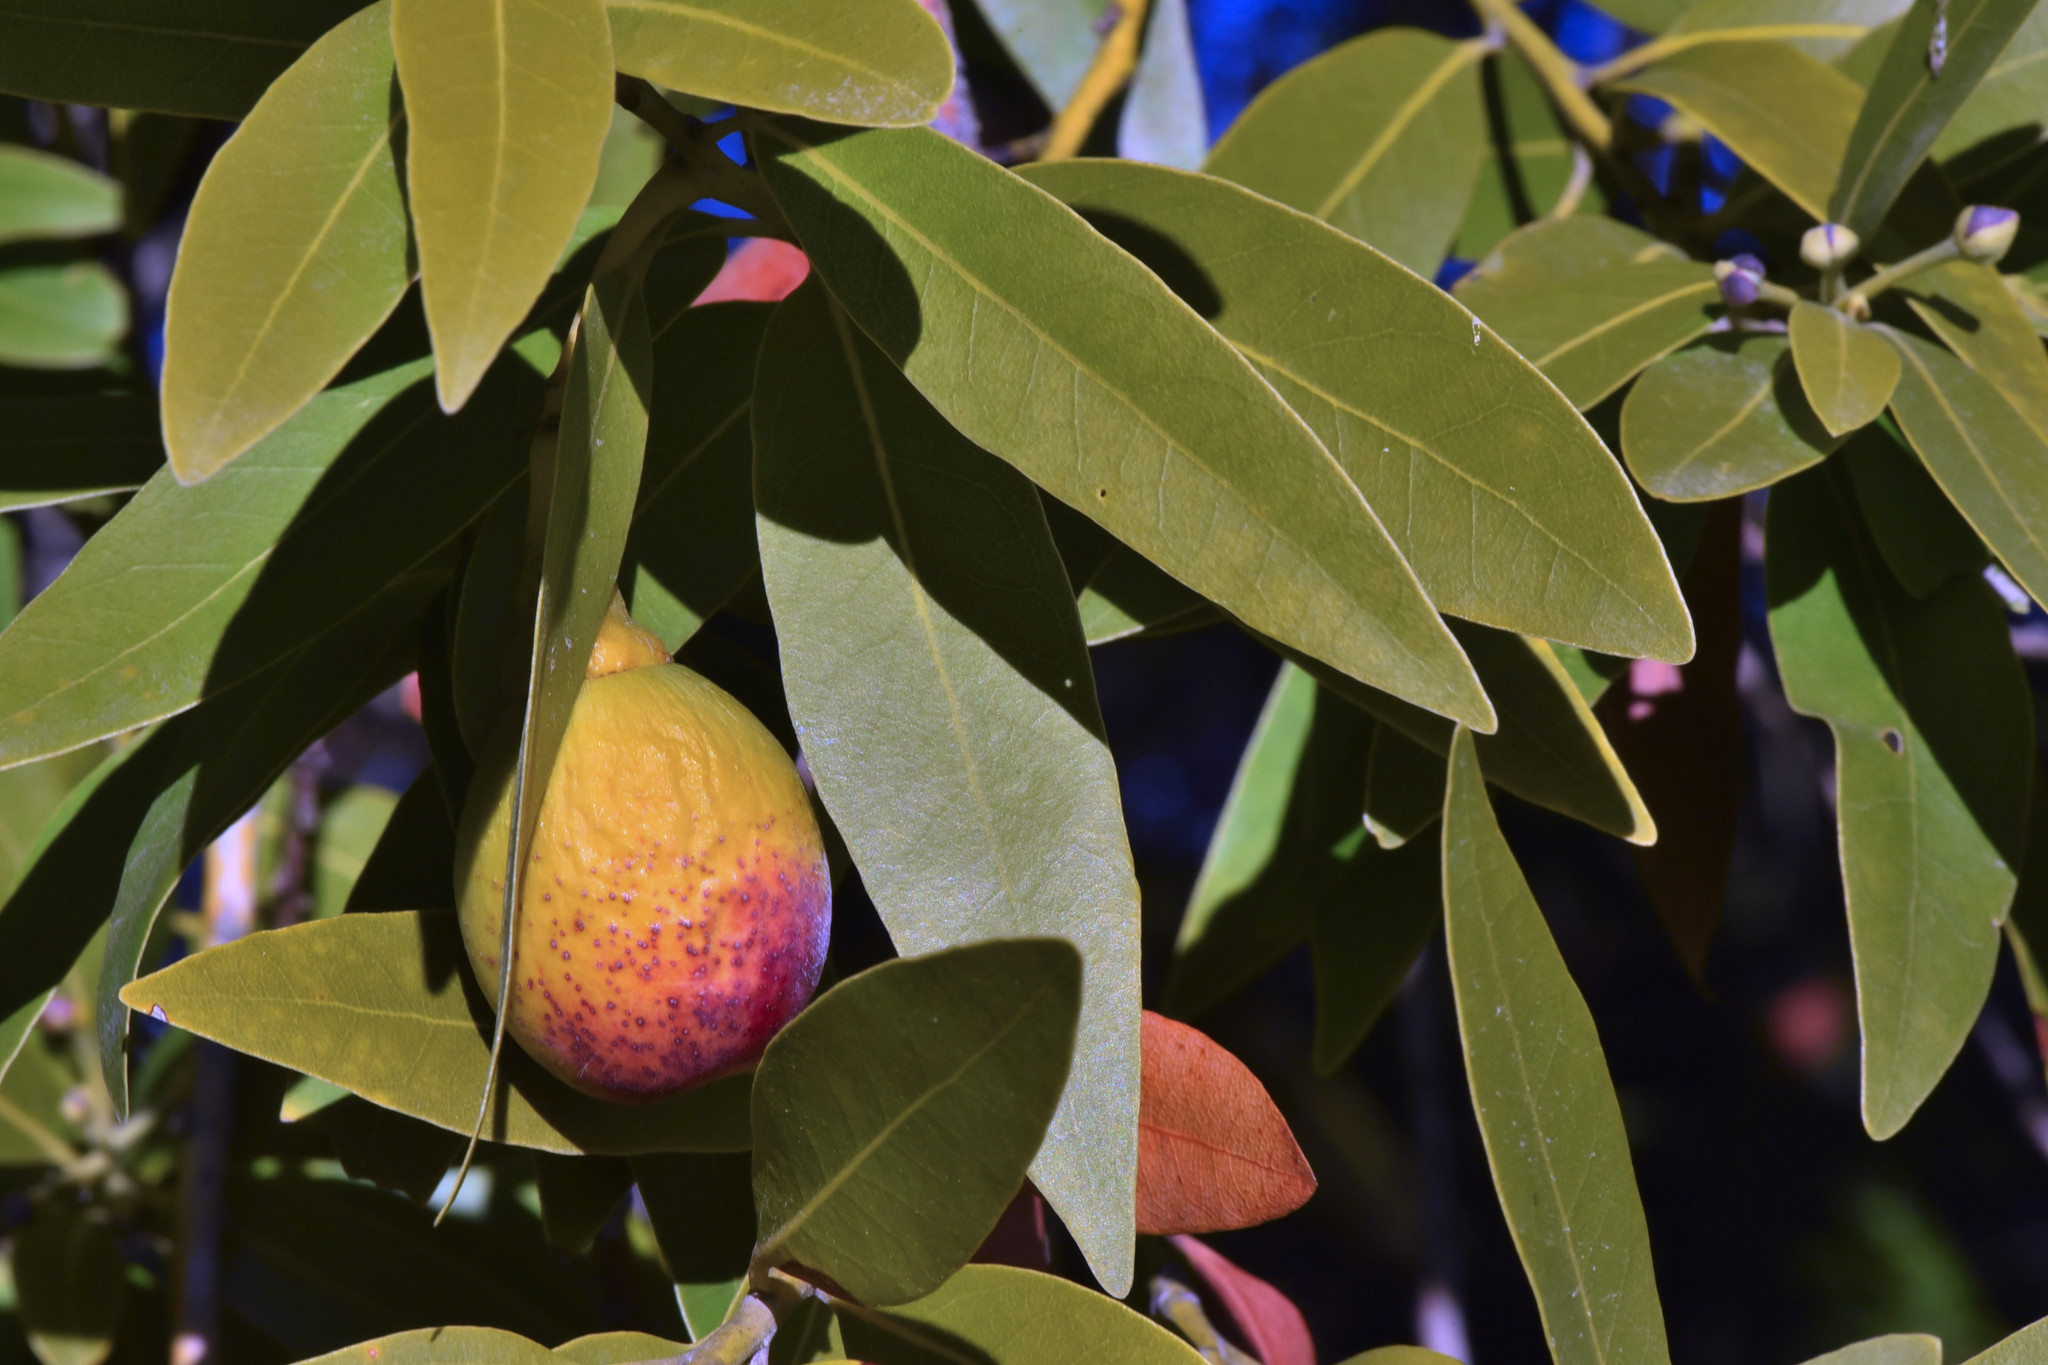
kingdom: Plantae
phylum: Tracheophyta
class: Magnoliopsida
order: Laurales
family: Lauraceae
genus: Umbellularia
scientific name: Umbellularia californica
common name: California bay
